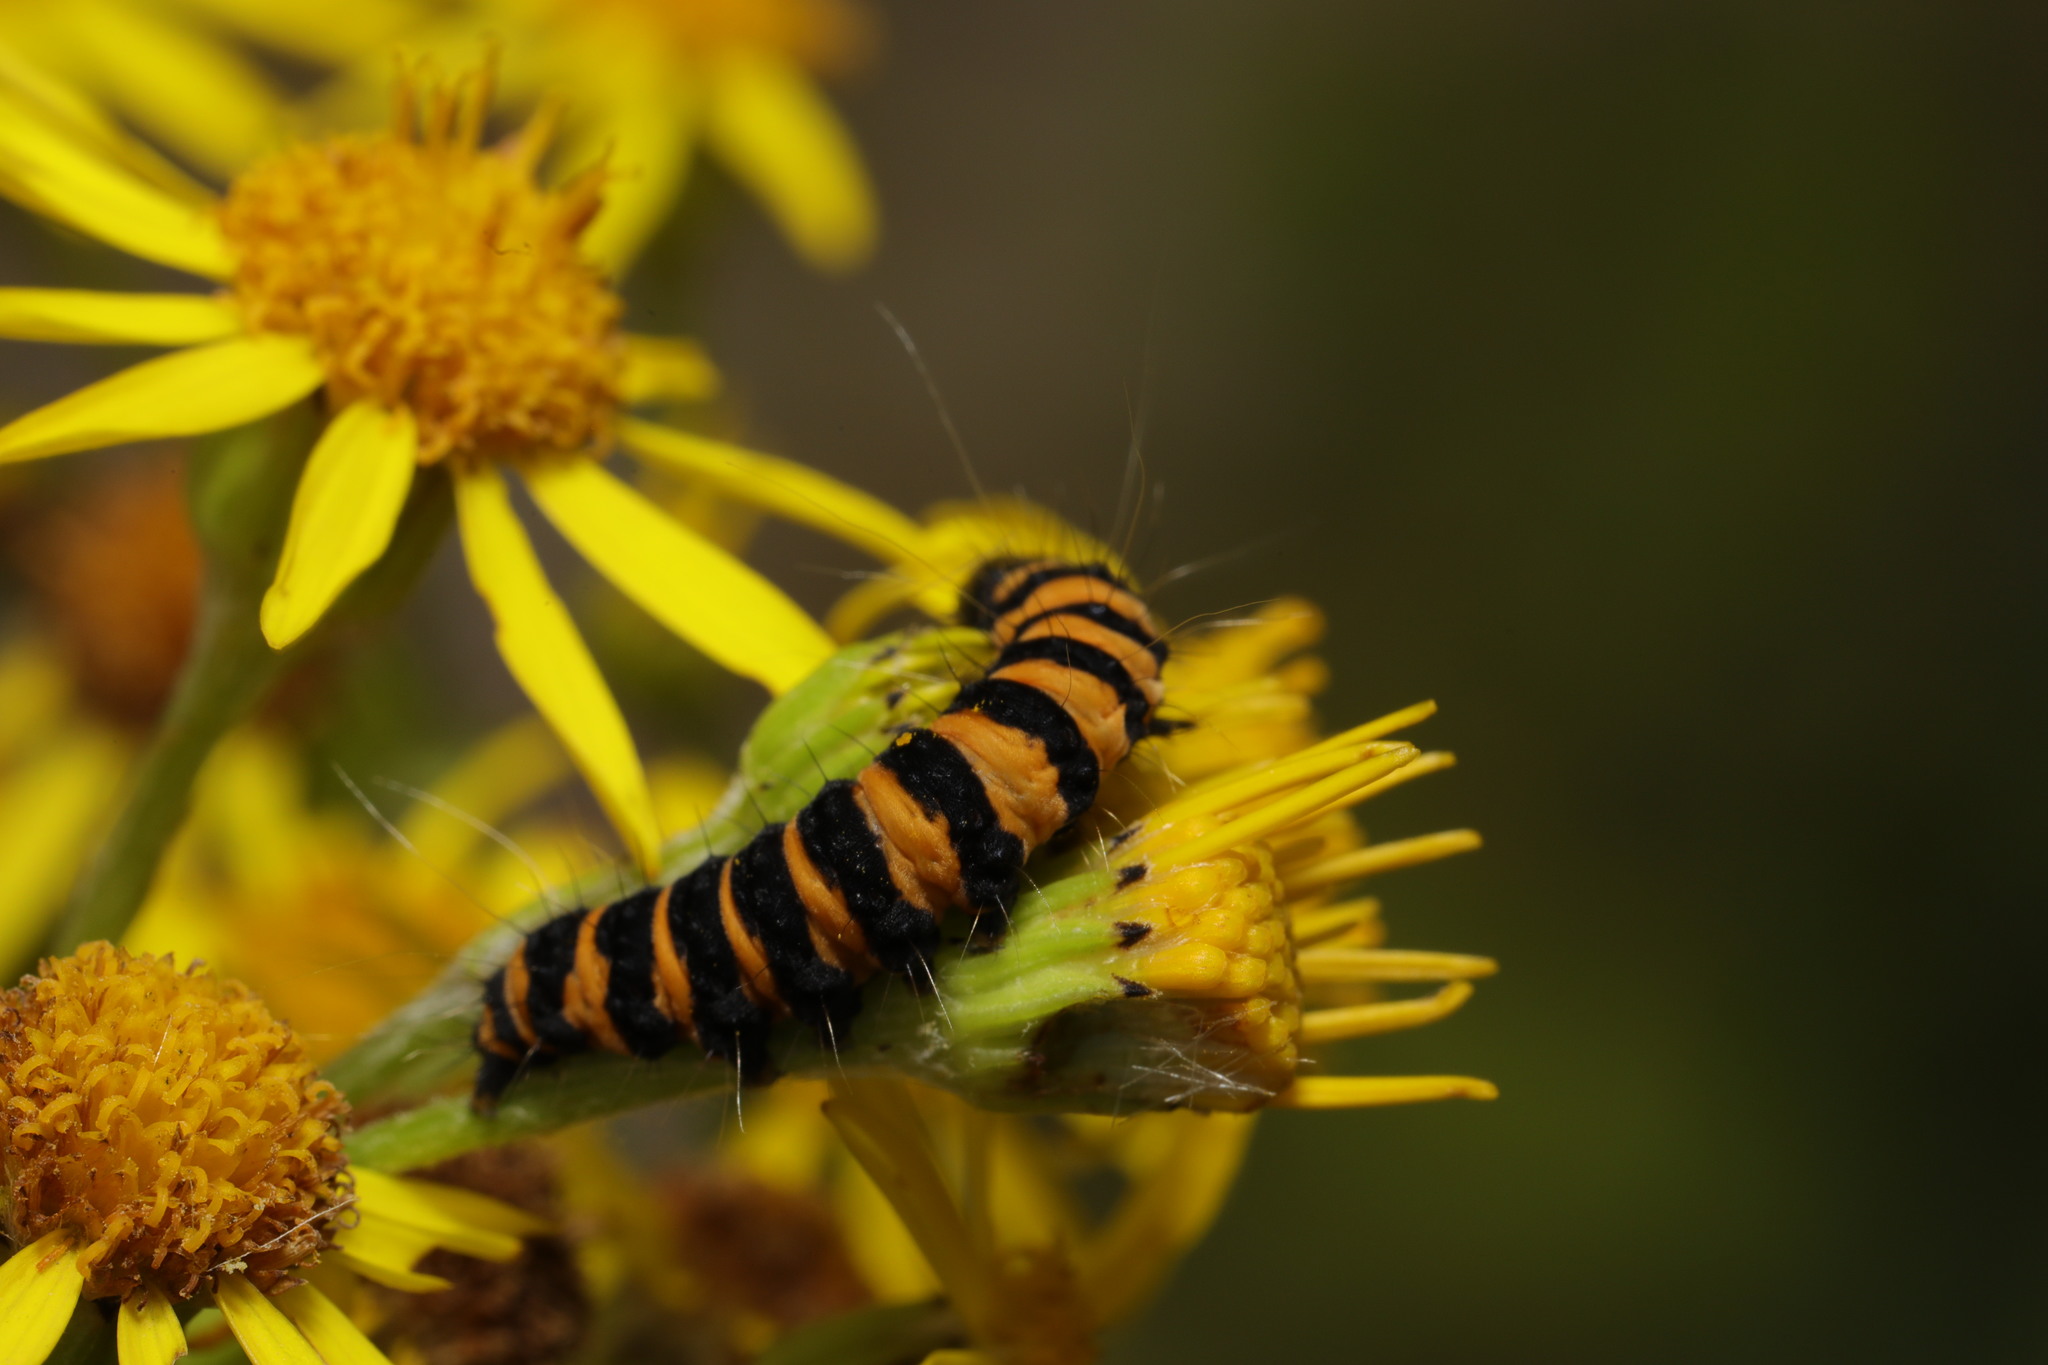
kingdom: Animalia
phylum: Arthropoda
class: Insecta
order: Lepidoptera
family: Erebidae
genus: Tyria
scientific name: Tyria jacobaeae
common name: Cinnabar
